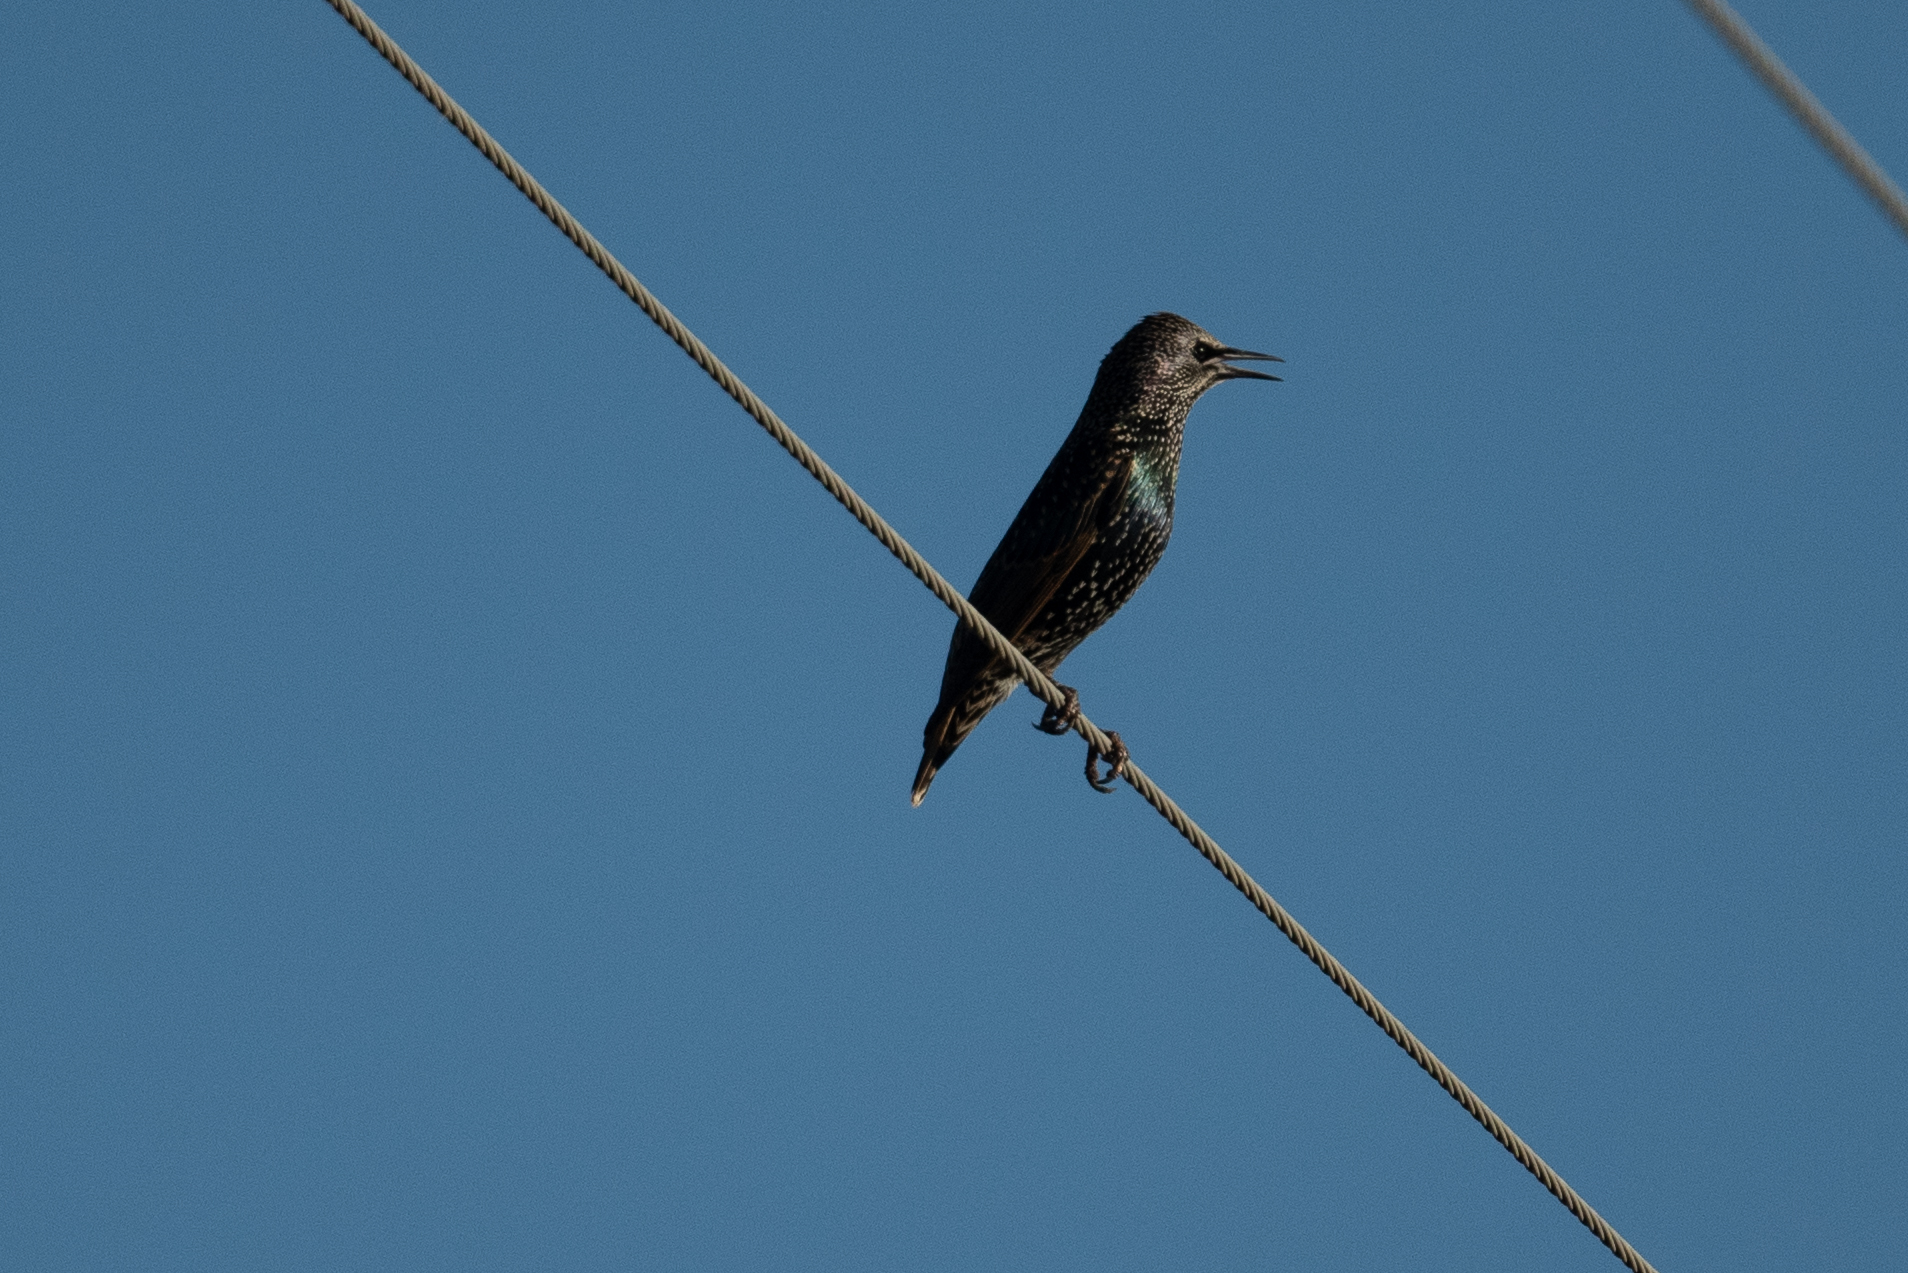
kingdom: Animalia
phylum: Chordata
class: Aves
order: Passeriformes
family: Sturnidae
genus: Sturnus
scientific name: Sturnus vulgaris
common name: Common starling
